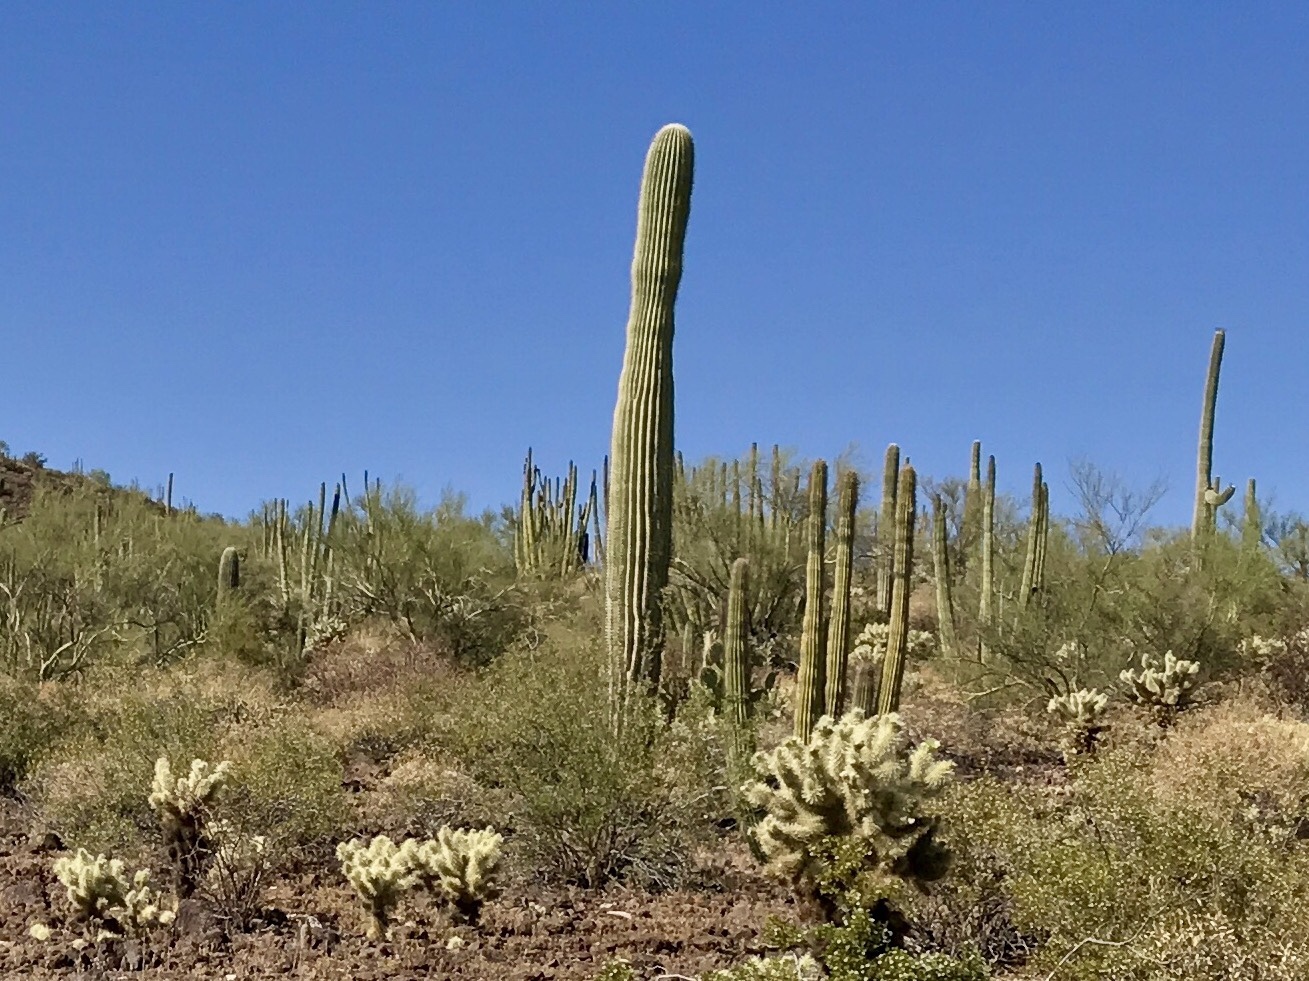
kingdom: Plantae
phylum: Tracheophyta
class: Magnoliopsida
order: Caryophyllales
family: Cactaceae
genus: Carnegiea
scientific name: Carnegiea gigantea
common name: Saguaro
